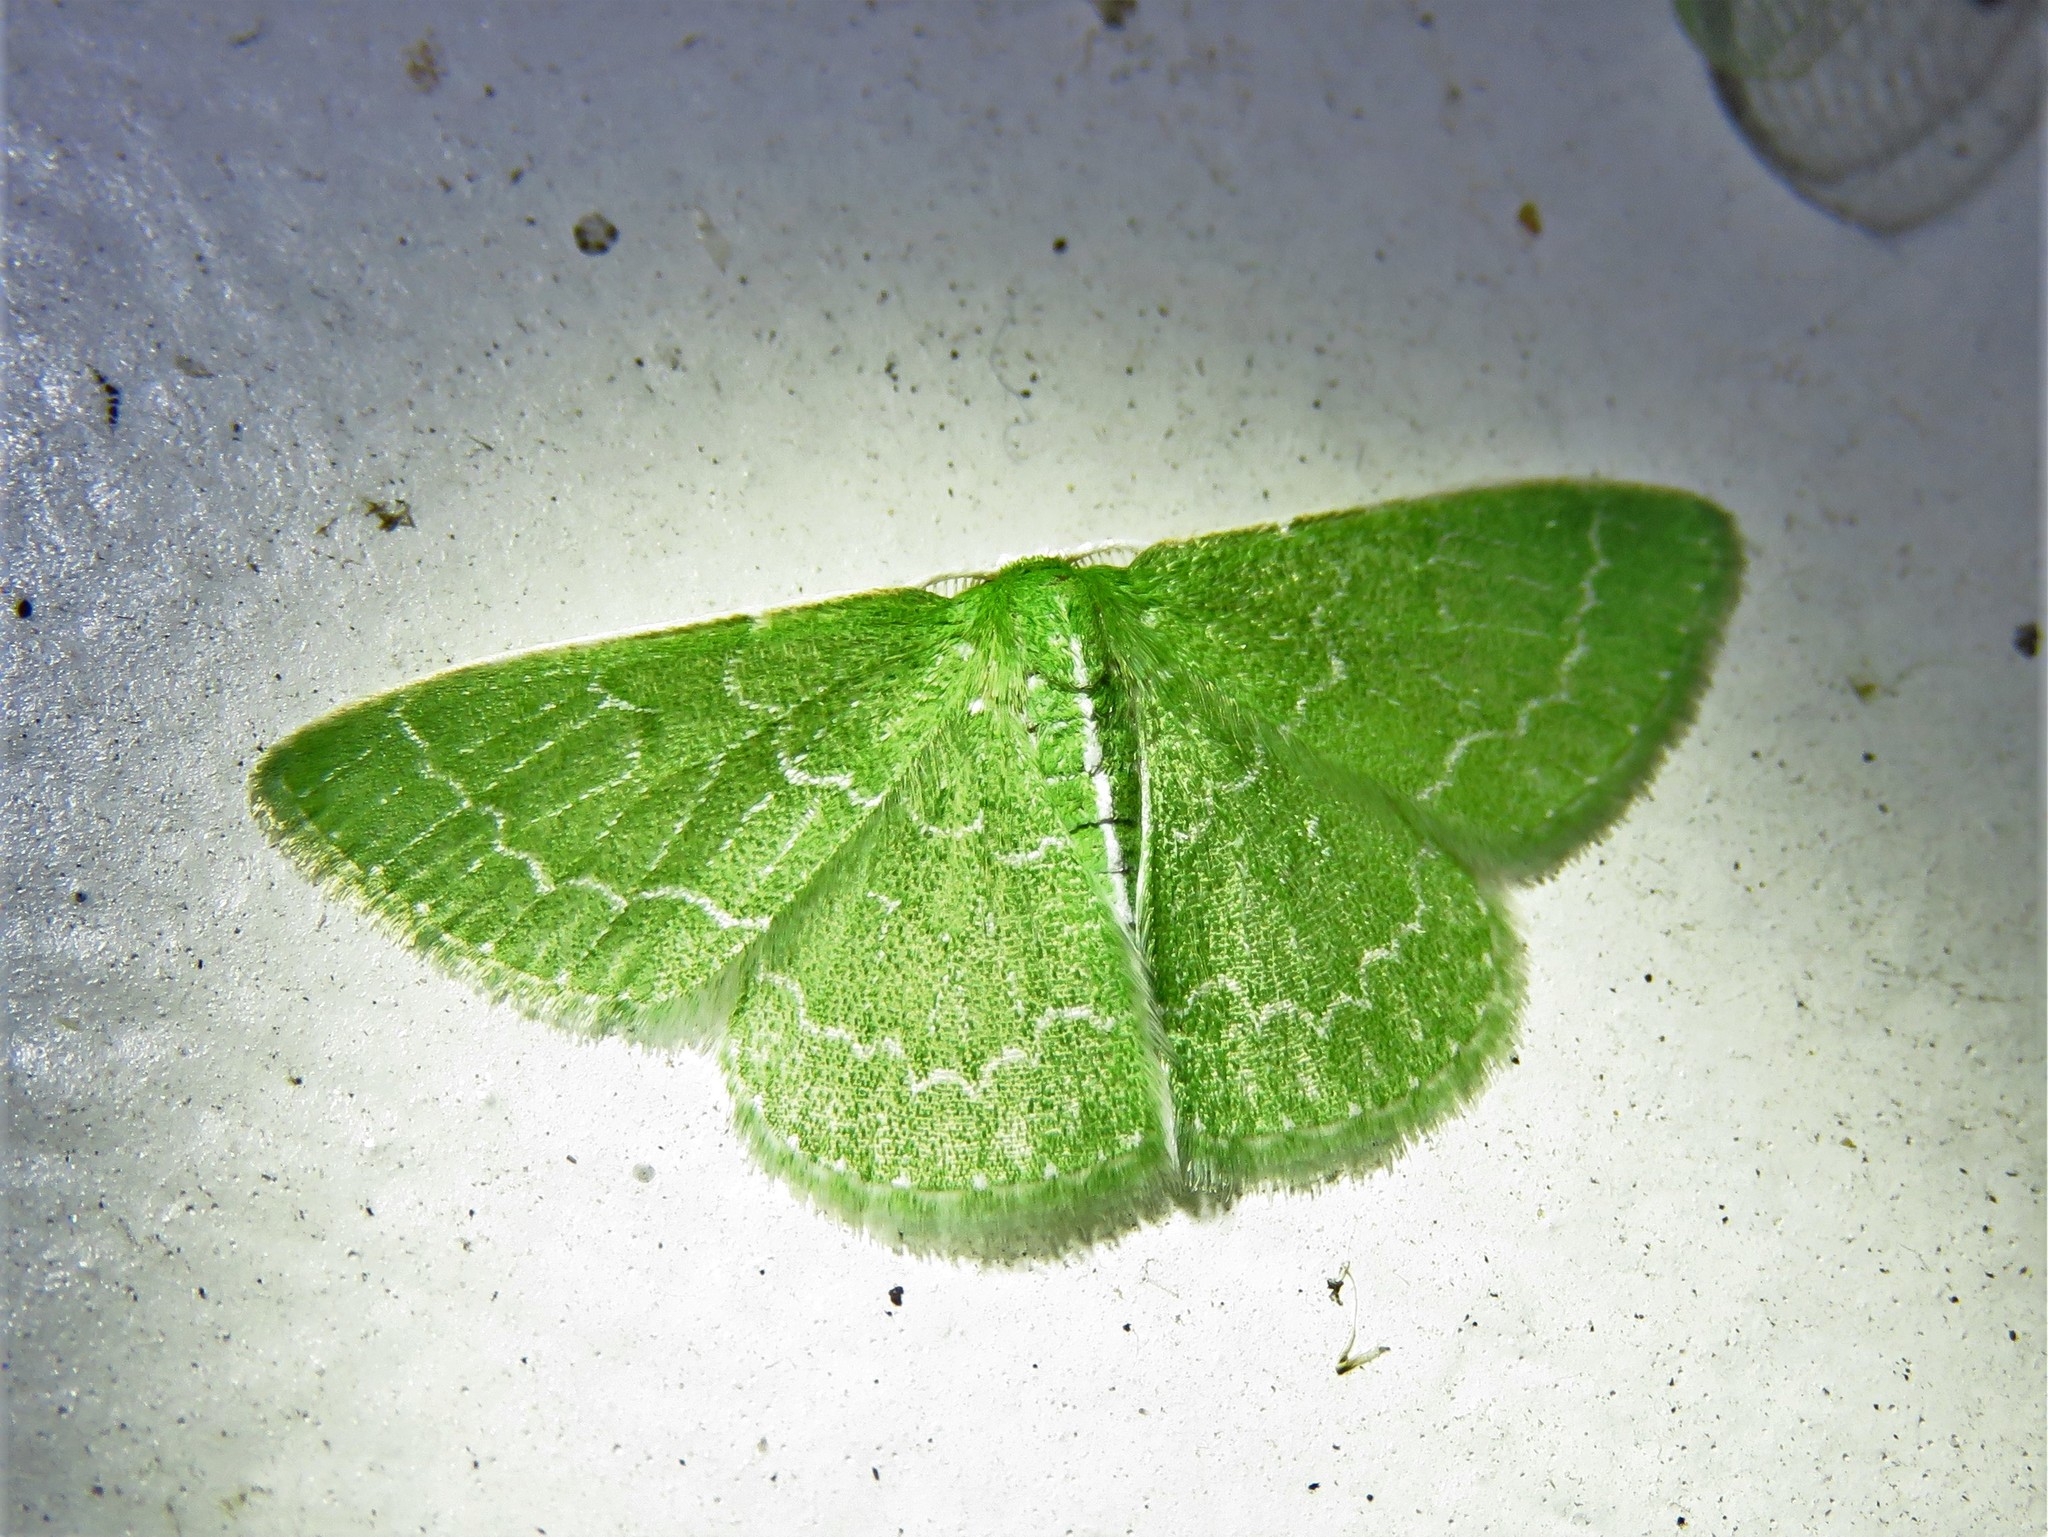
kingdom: Animalia
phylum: Arthropoda
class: Insecta
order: Lepidoptera
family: Geometridae
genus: Synchlora
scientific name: Synchlora frondaria
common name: Southern emerald
